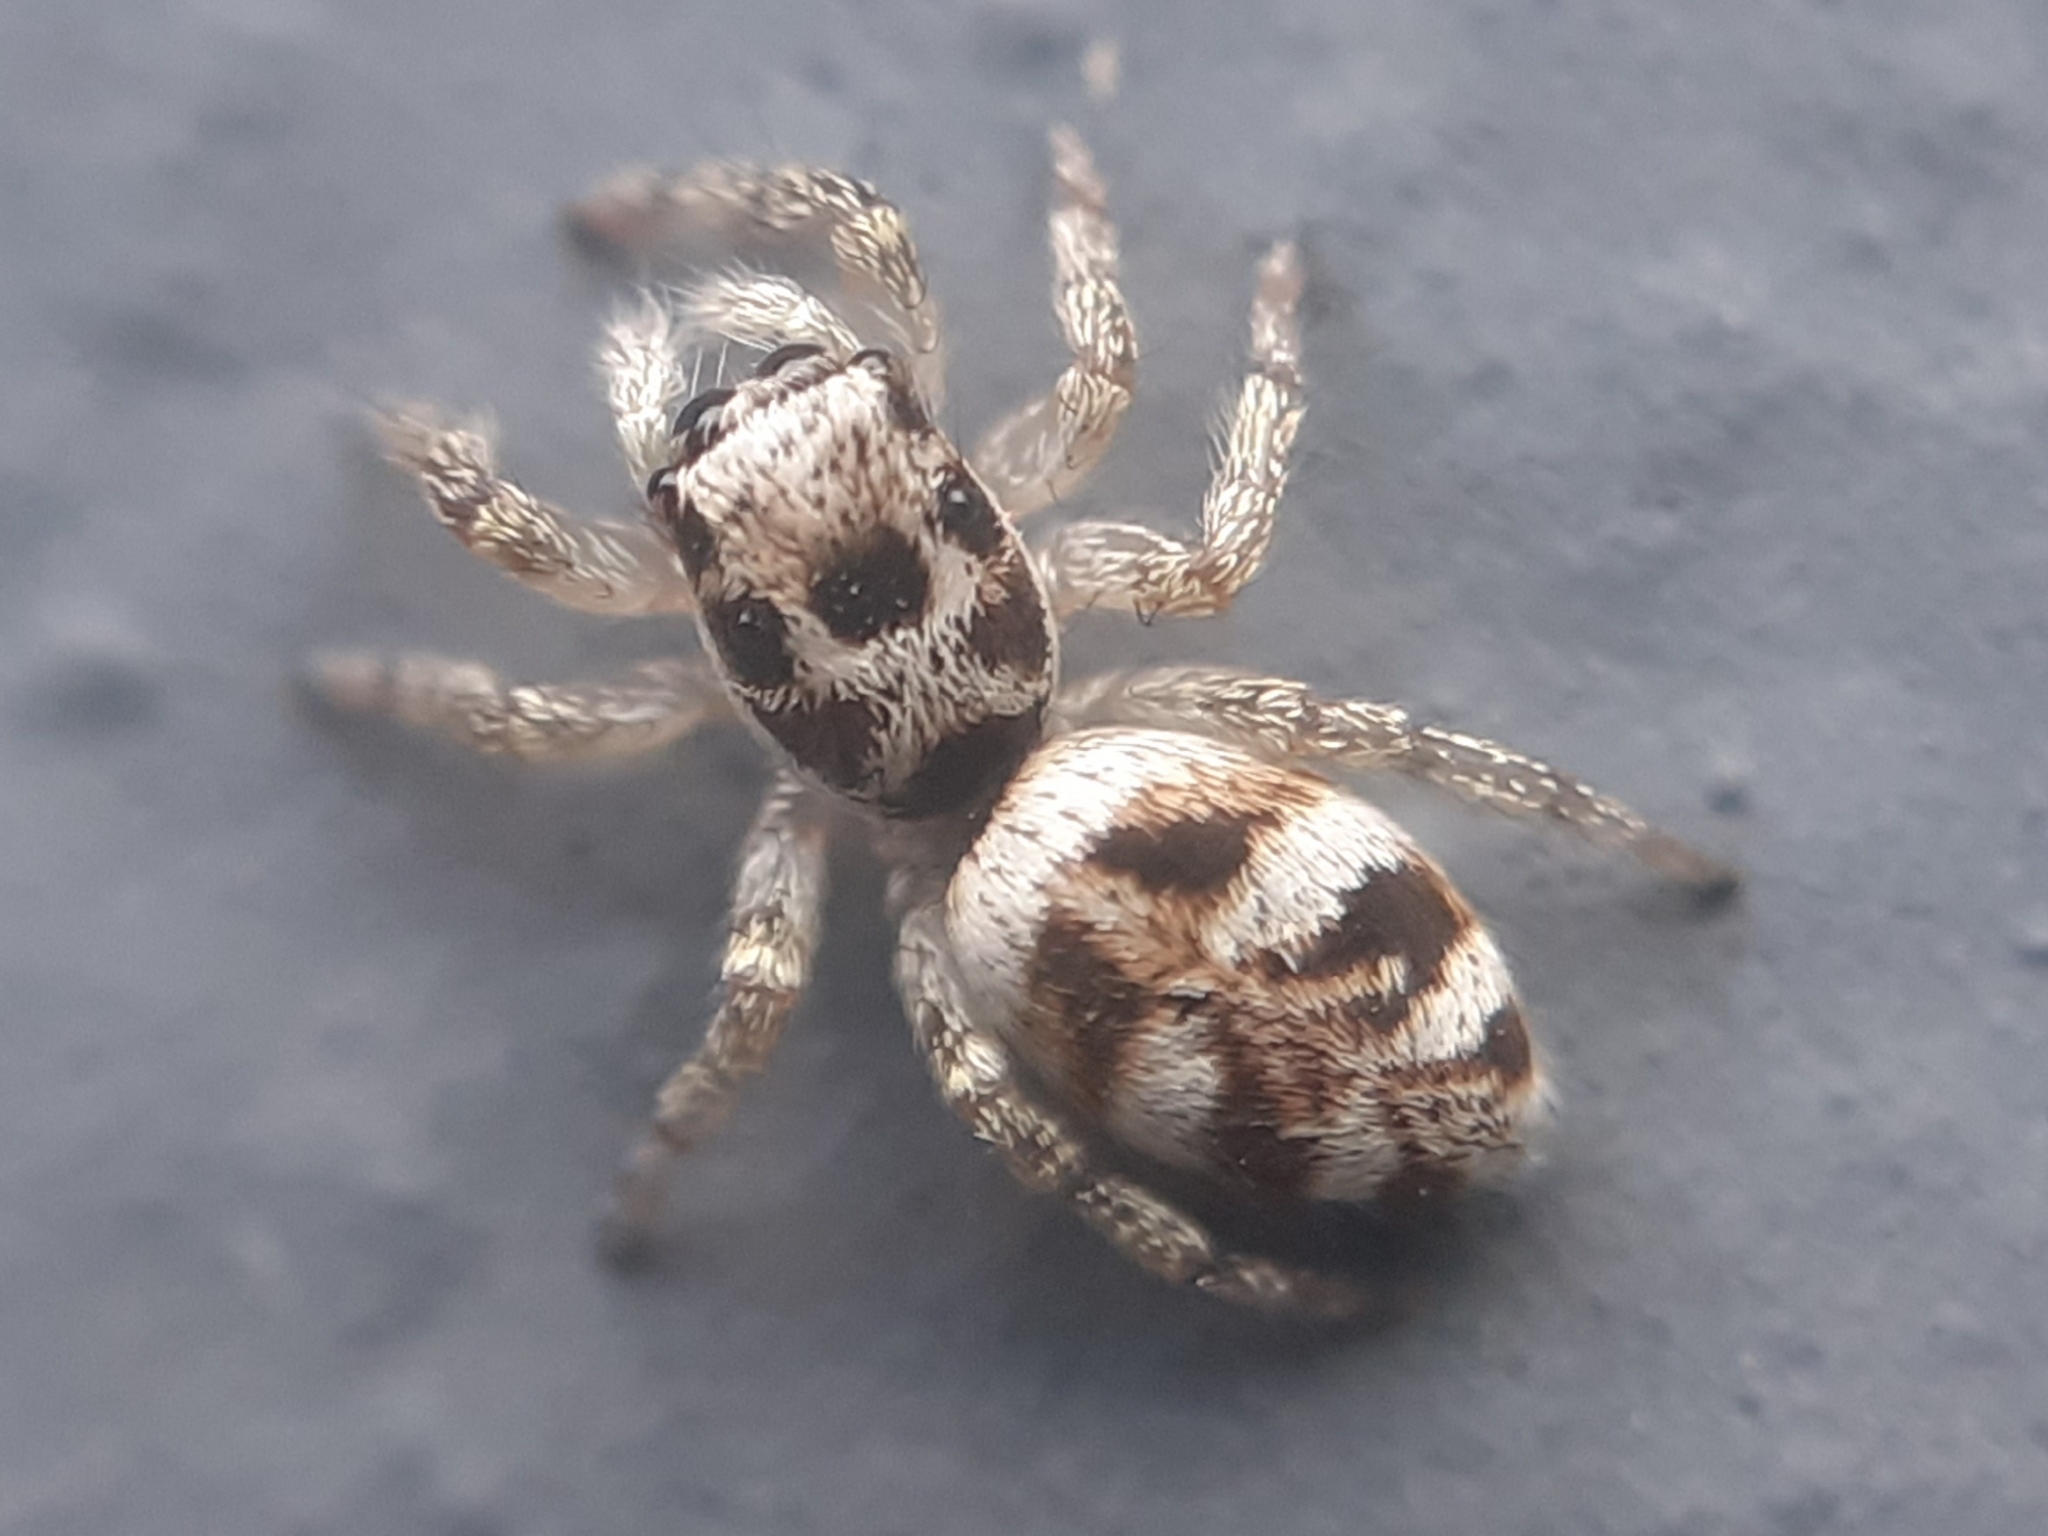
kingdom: Animalia
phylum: Arthropoda
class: Arachnida
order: Araneae
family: Salticidae
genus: Salticus
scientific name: Salticus scenicus
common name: Zebra jumper
